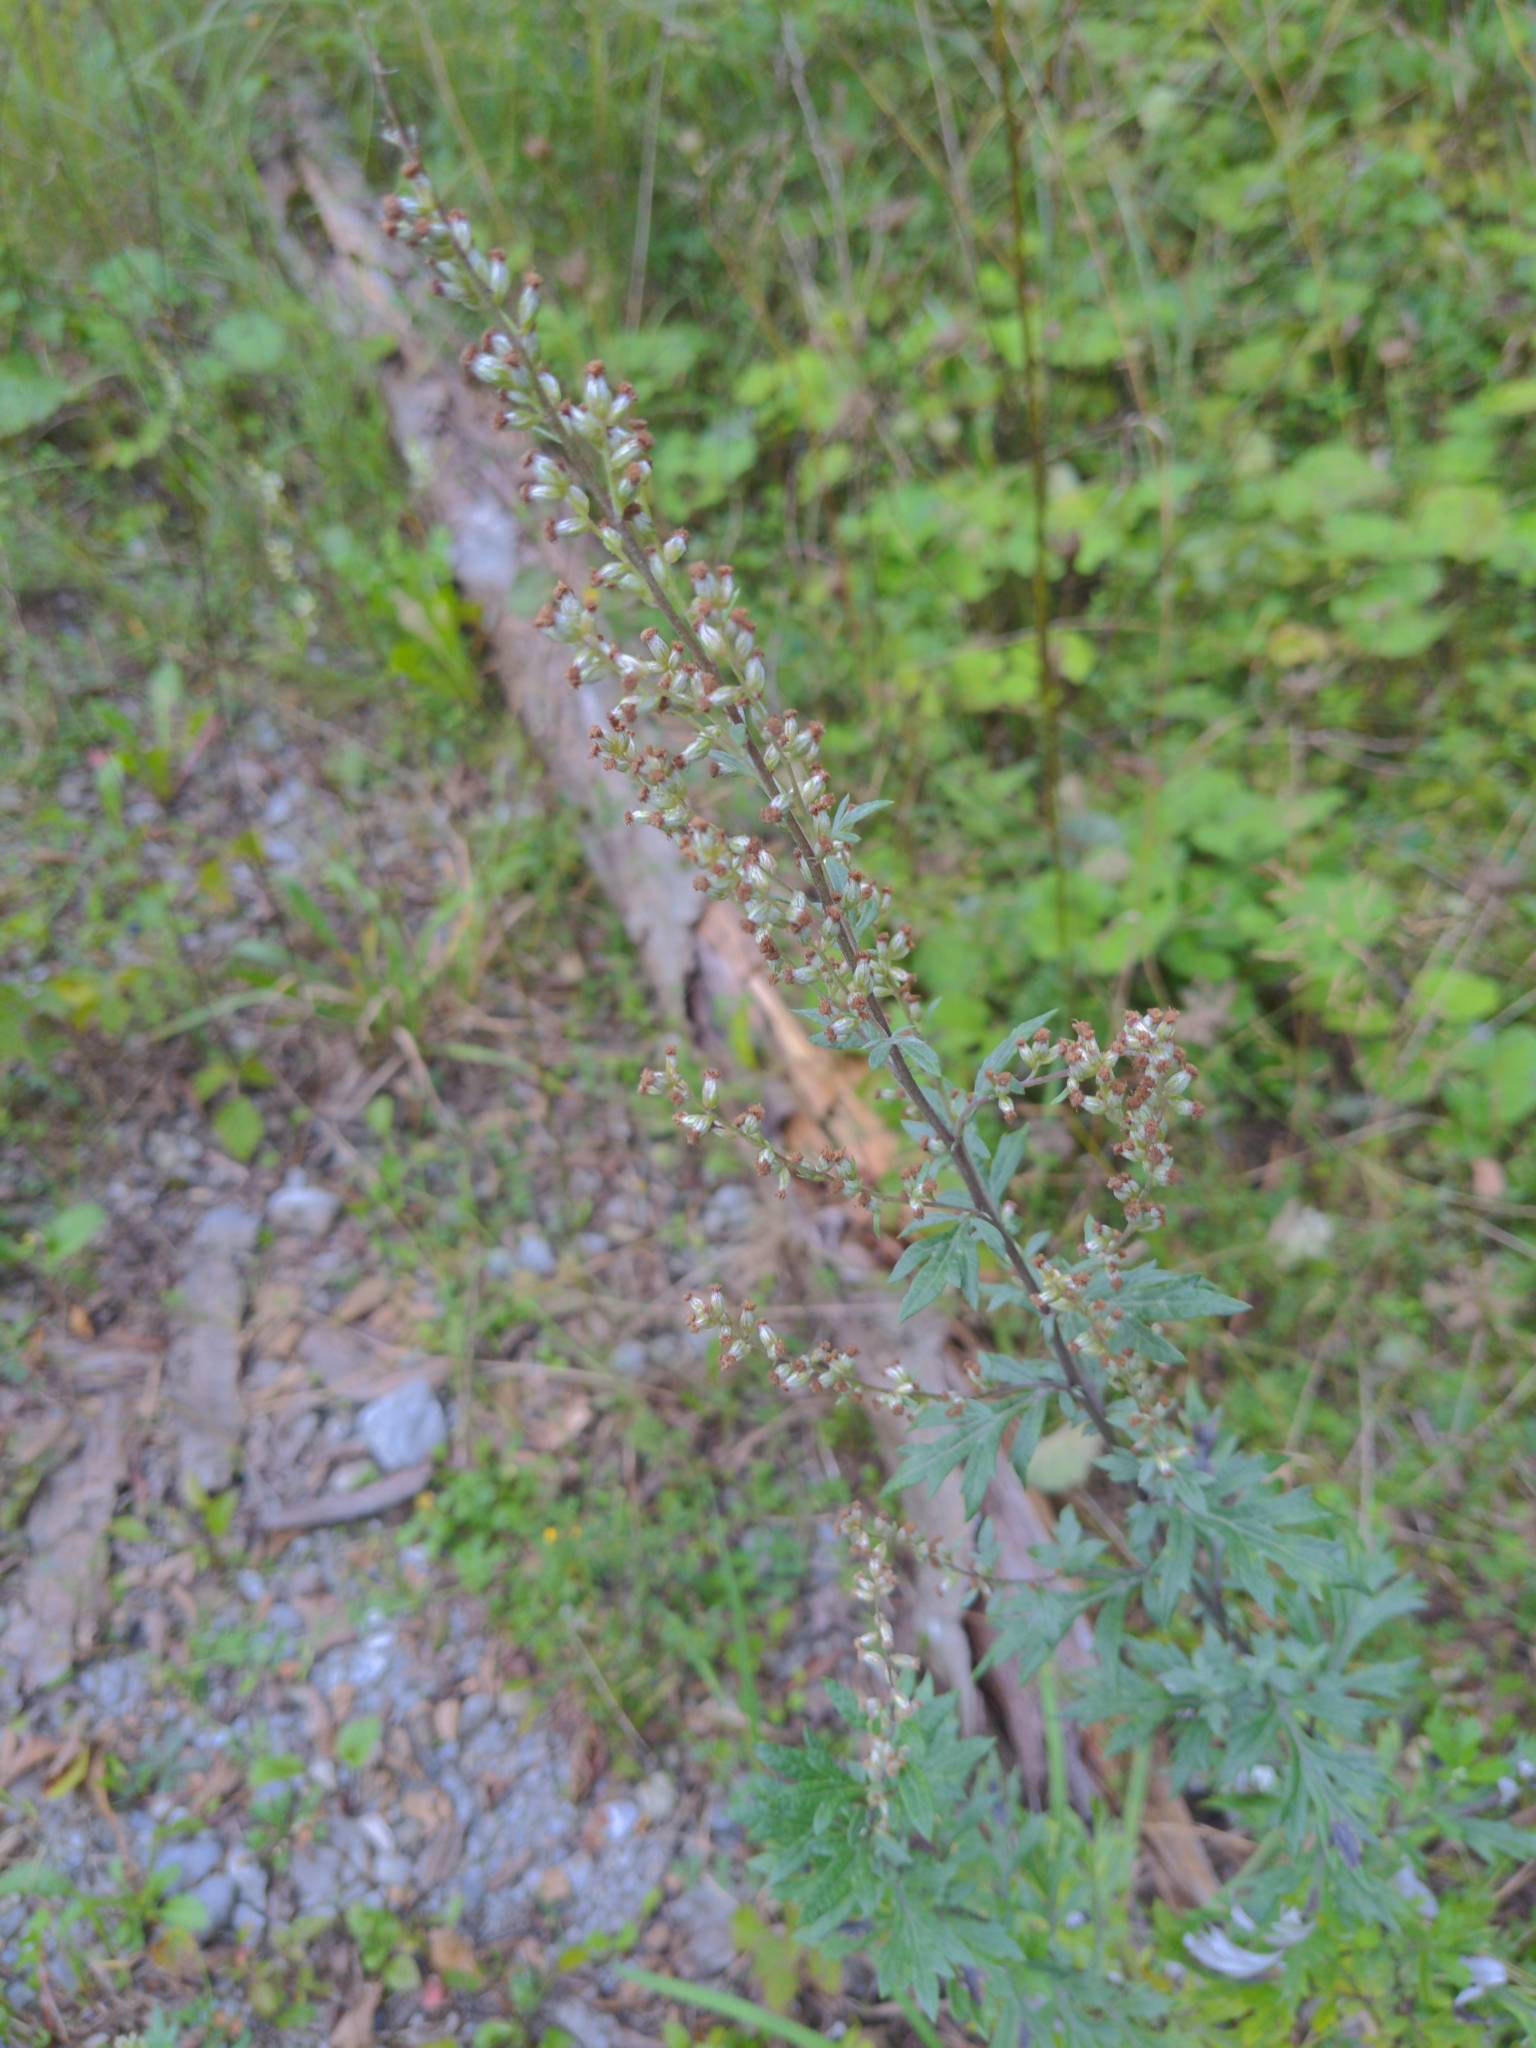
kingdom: Plantae
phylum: Tracheophyta
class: Magnoliopsida
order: Asterales
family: Asteraceae
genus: Artemisia
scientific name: Artemisia vulgaris
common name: Mugwort
